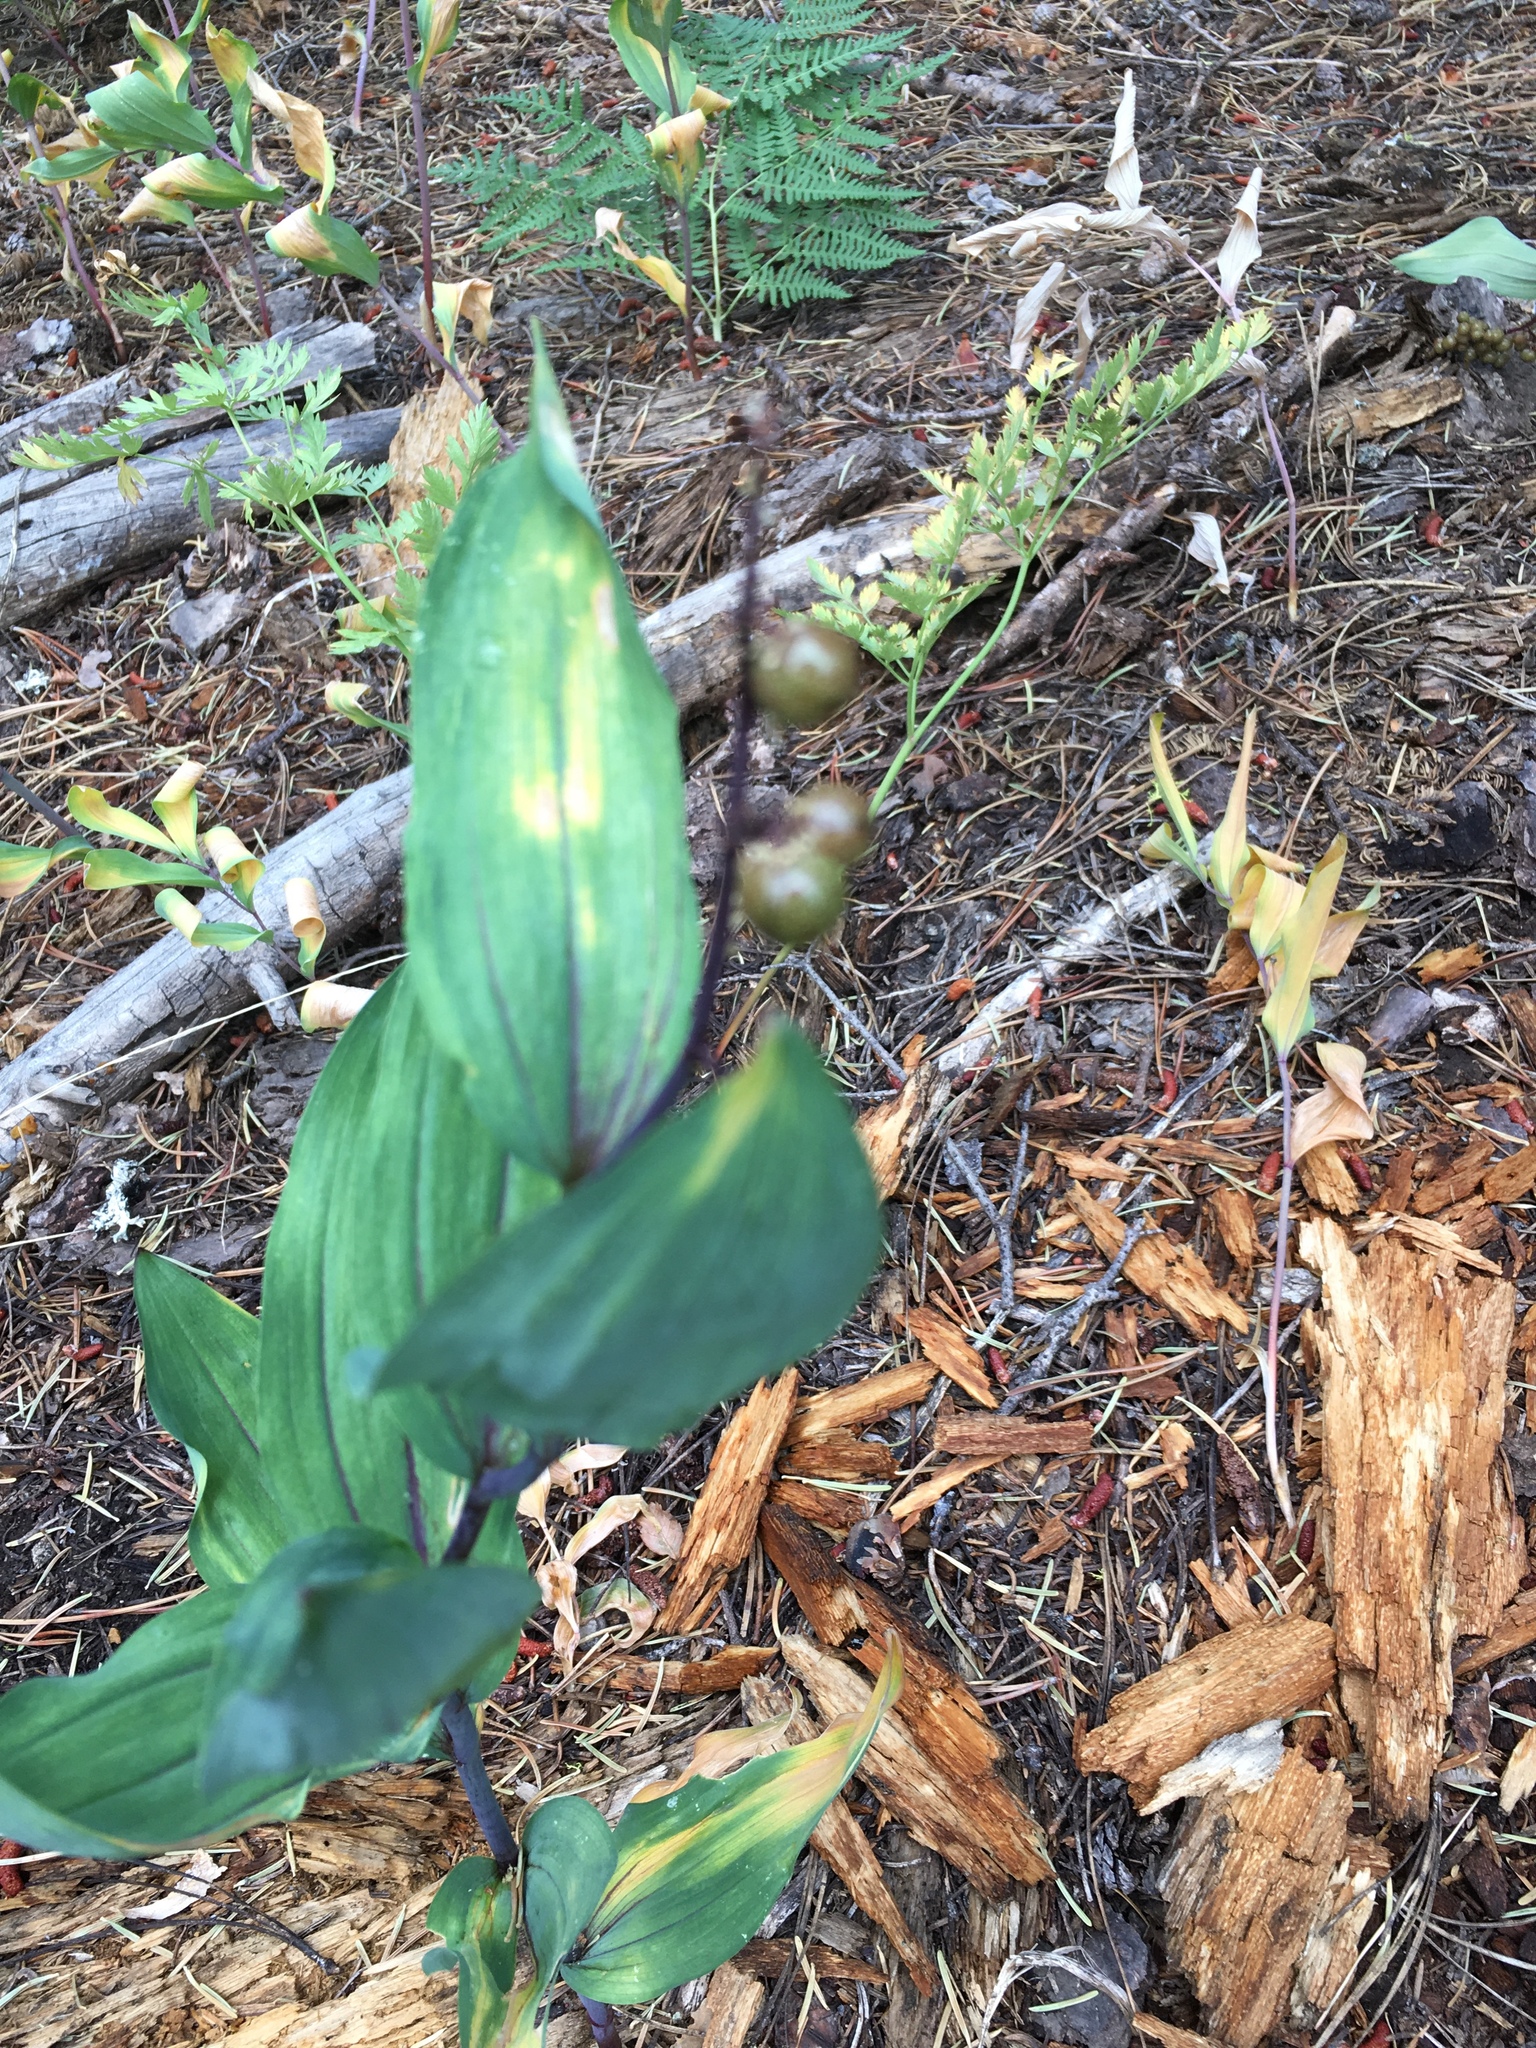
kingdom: Plantae
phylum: Tracheophyta
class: Liliopsida
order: Asparagales
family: Asparagaceae
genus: Maianthemum
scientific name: Maianthemum racemosum
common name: False spikenard
